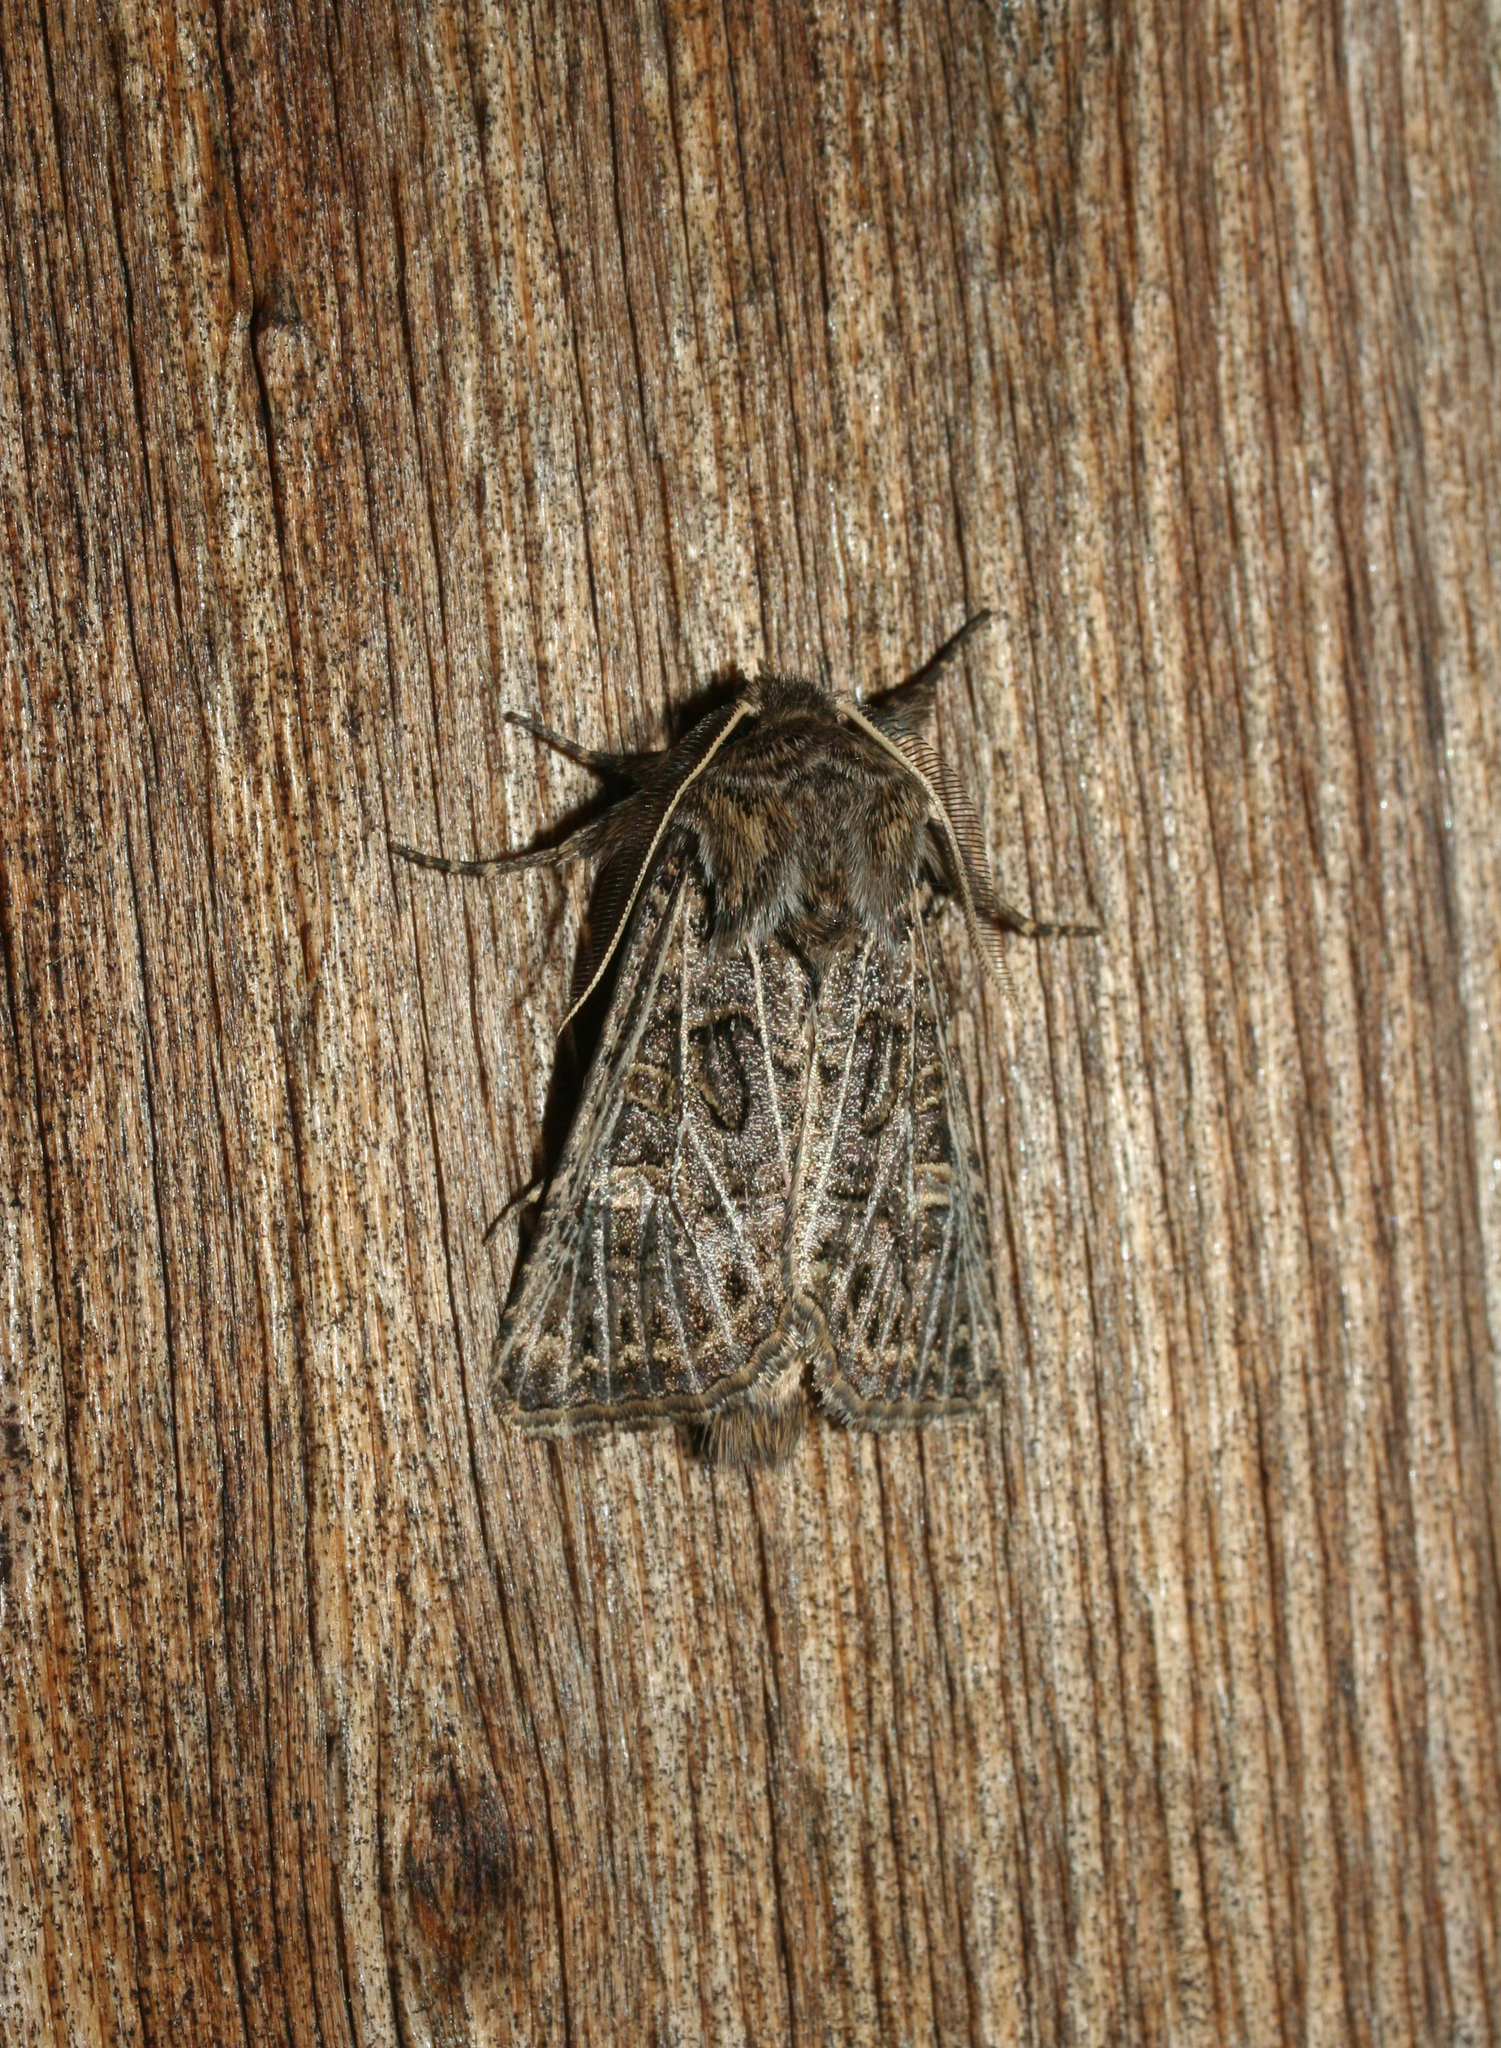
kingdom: Animalia
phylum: Arthropoda
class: Insecta
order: Lepidoptera
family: Noctuidae
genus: Tholera
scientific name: Tholera decimalis
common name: Feathered gothic
